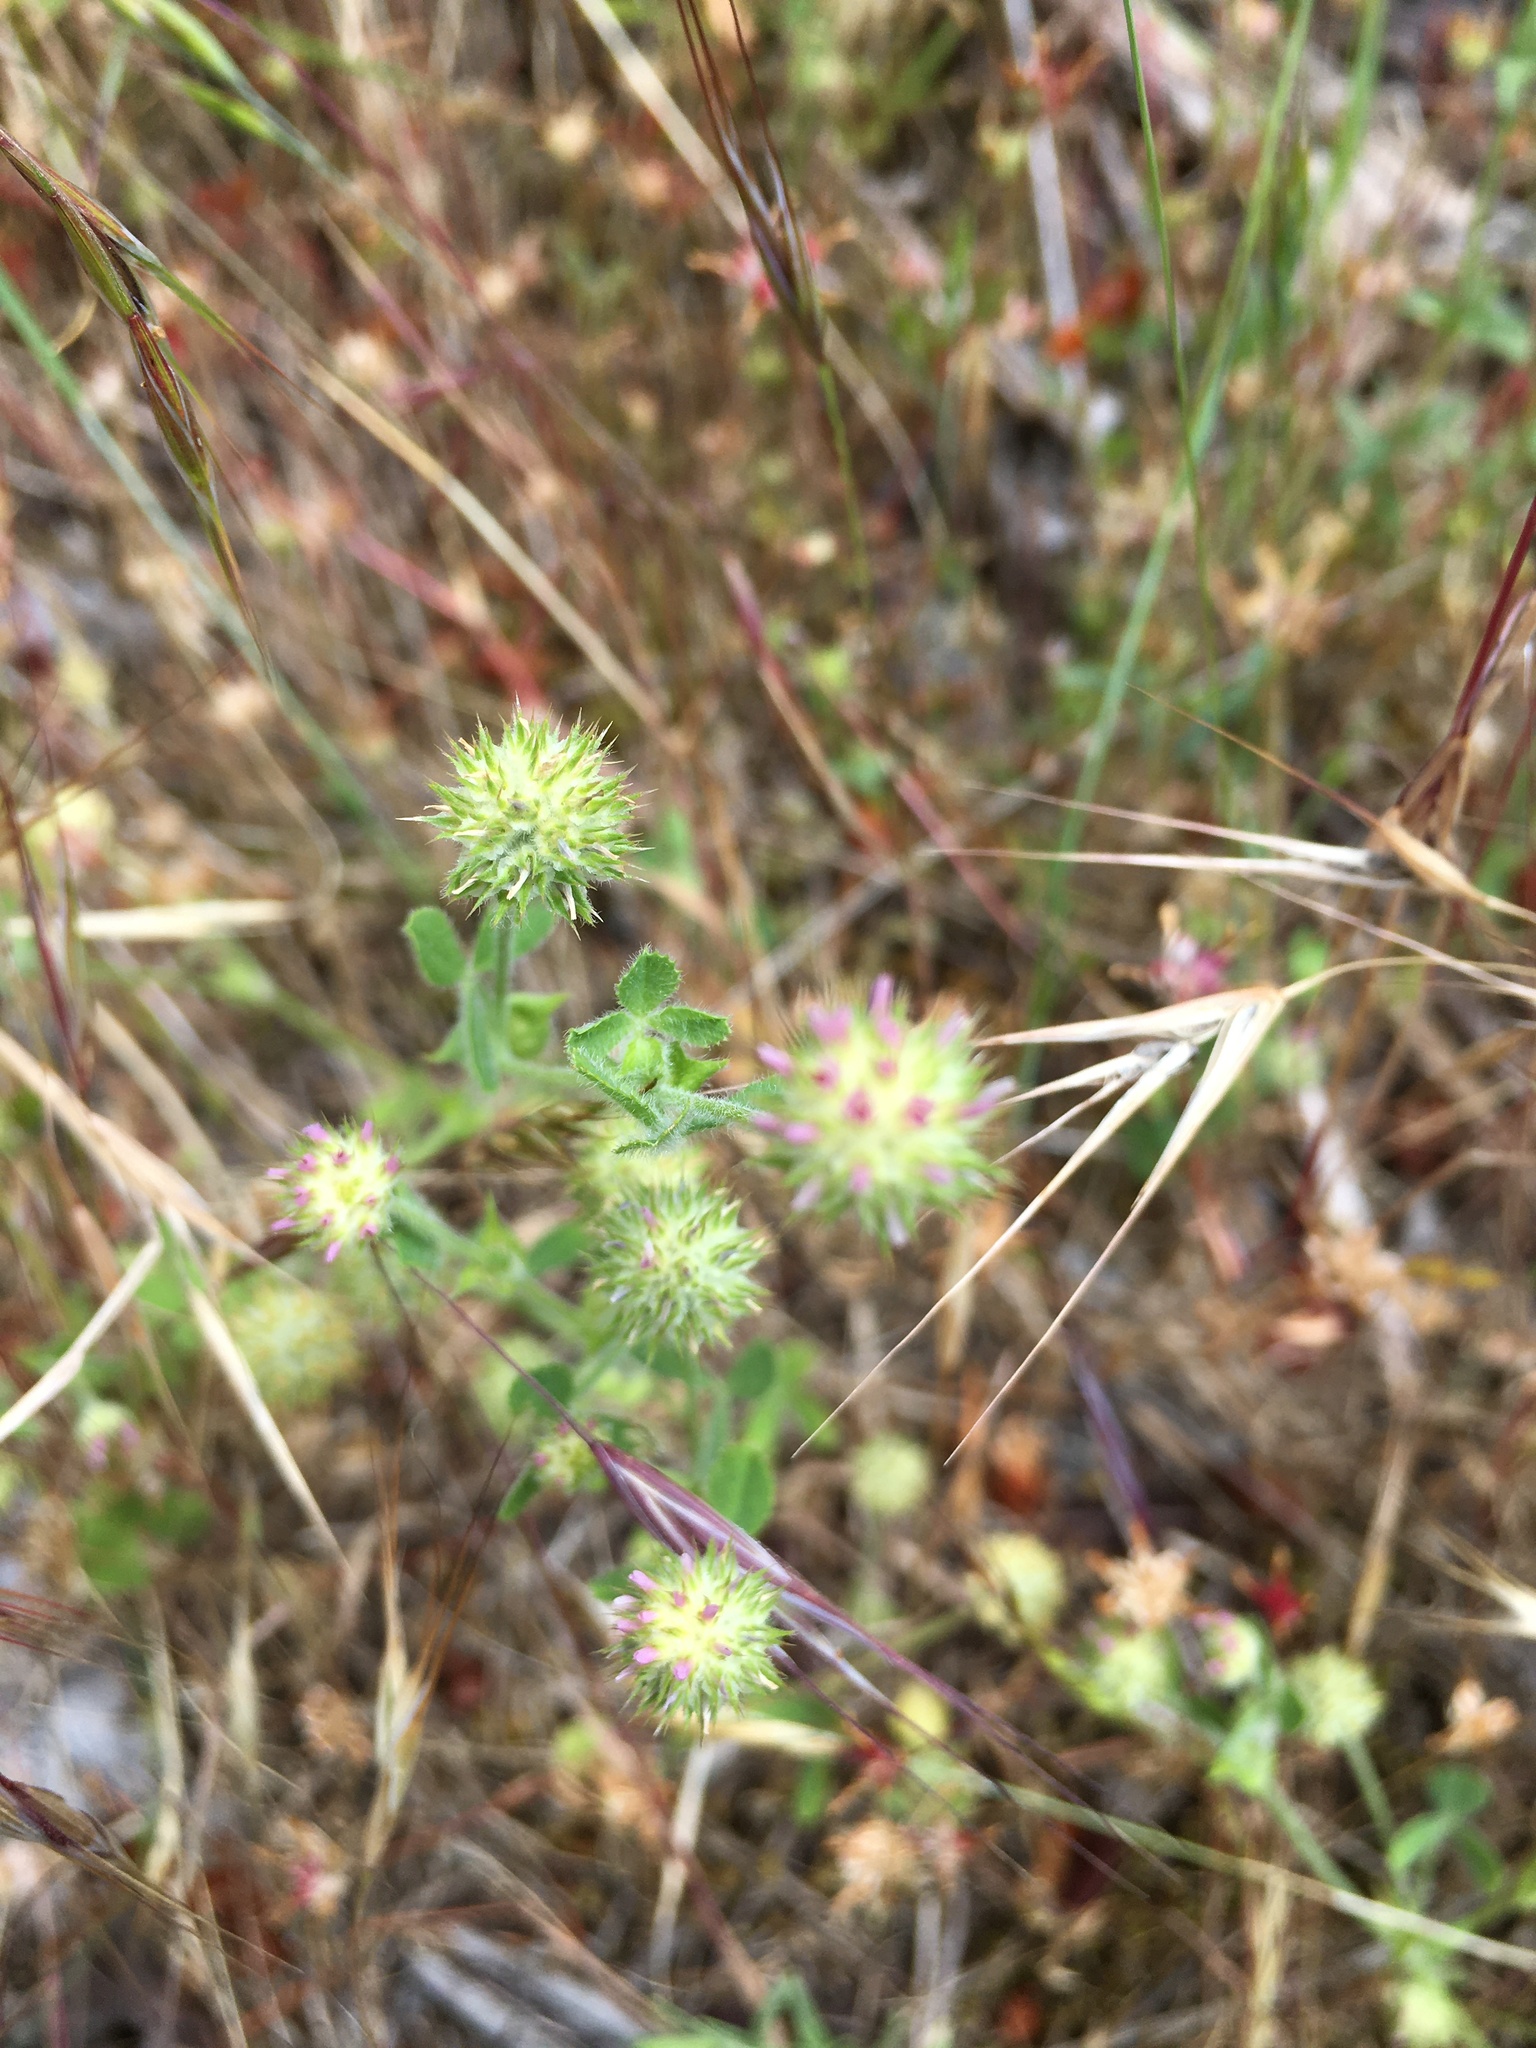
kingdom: Plantae
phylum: Tracheophyta
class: Magnoliopsida
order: Fabales
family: Fabaceae
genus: Trifolium
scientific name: Trifolium microcephalum
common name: Maiden clover
